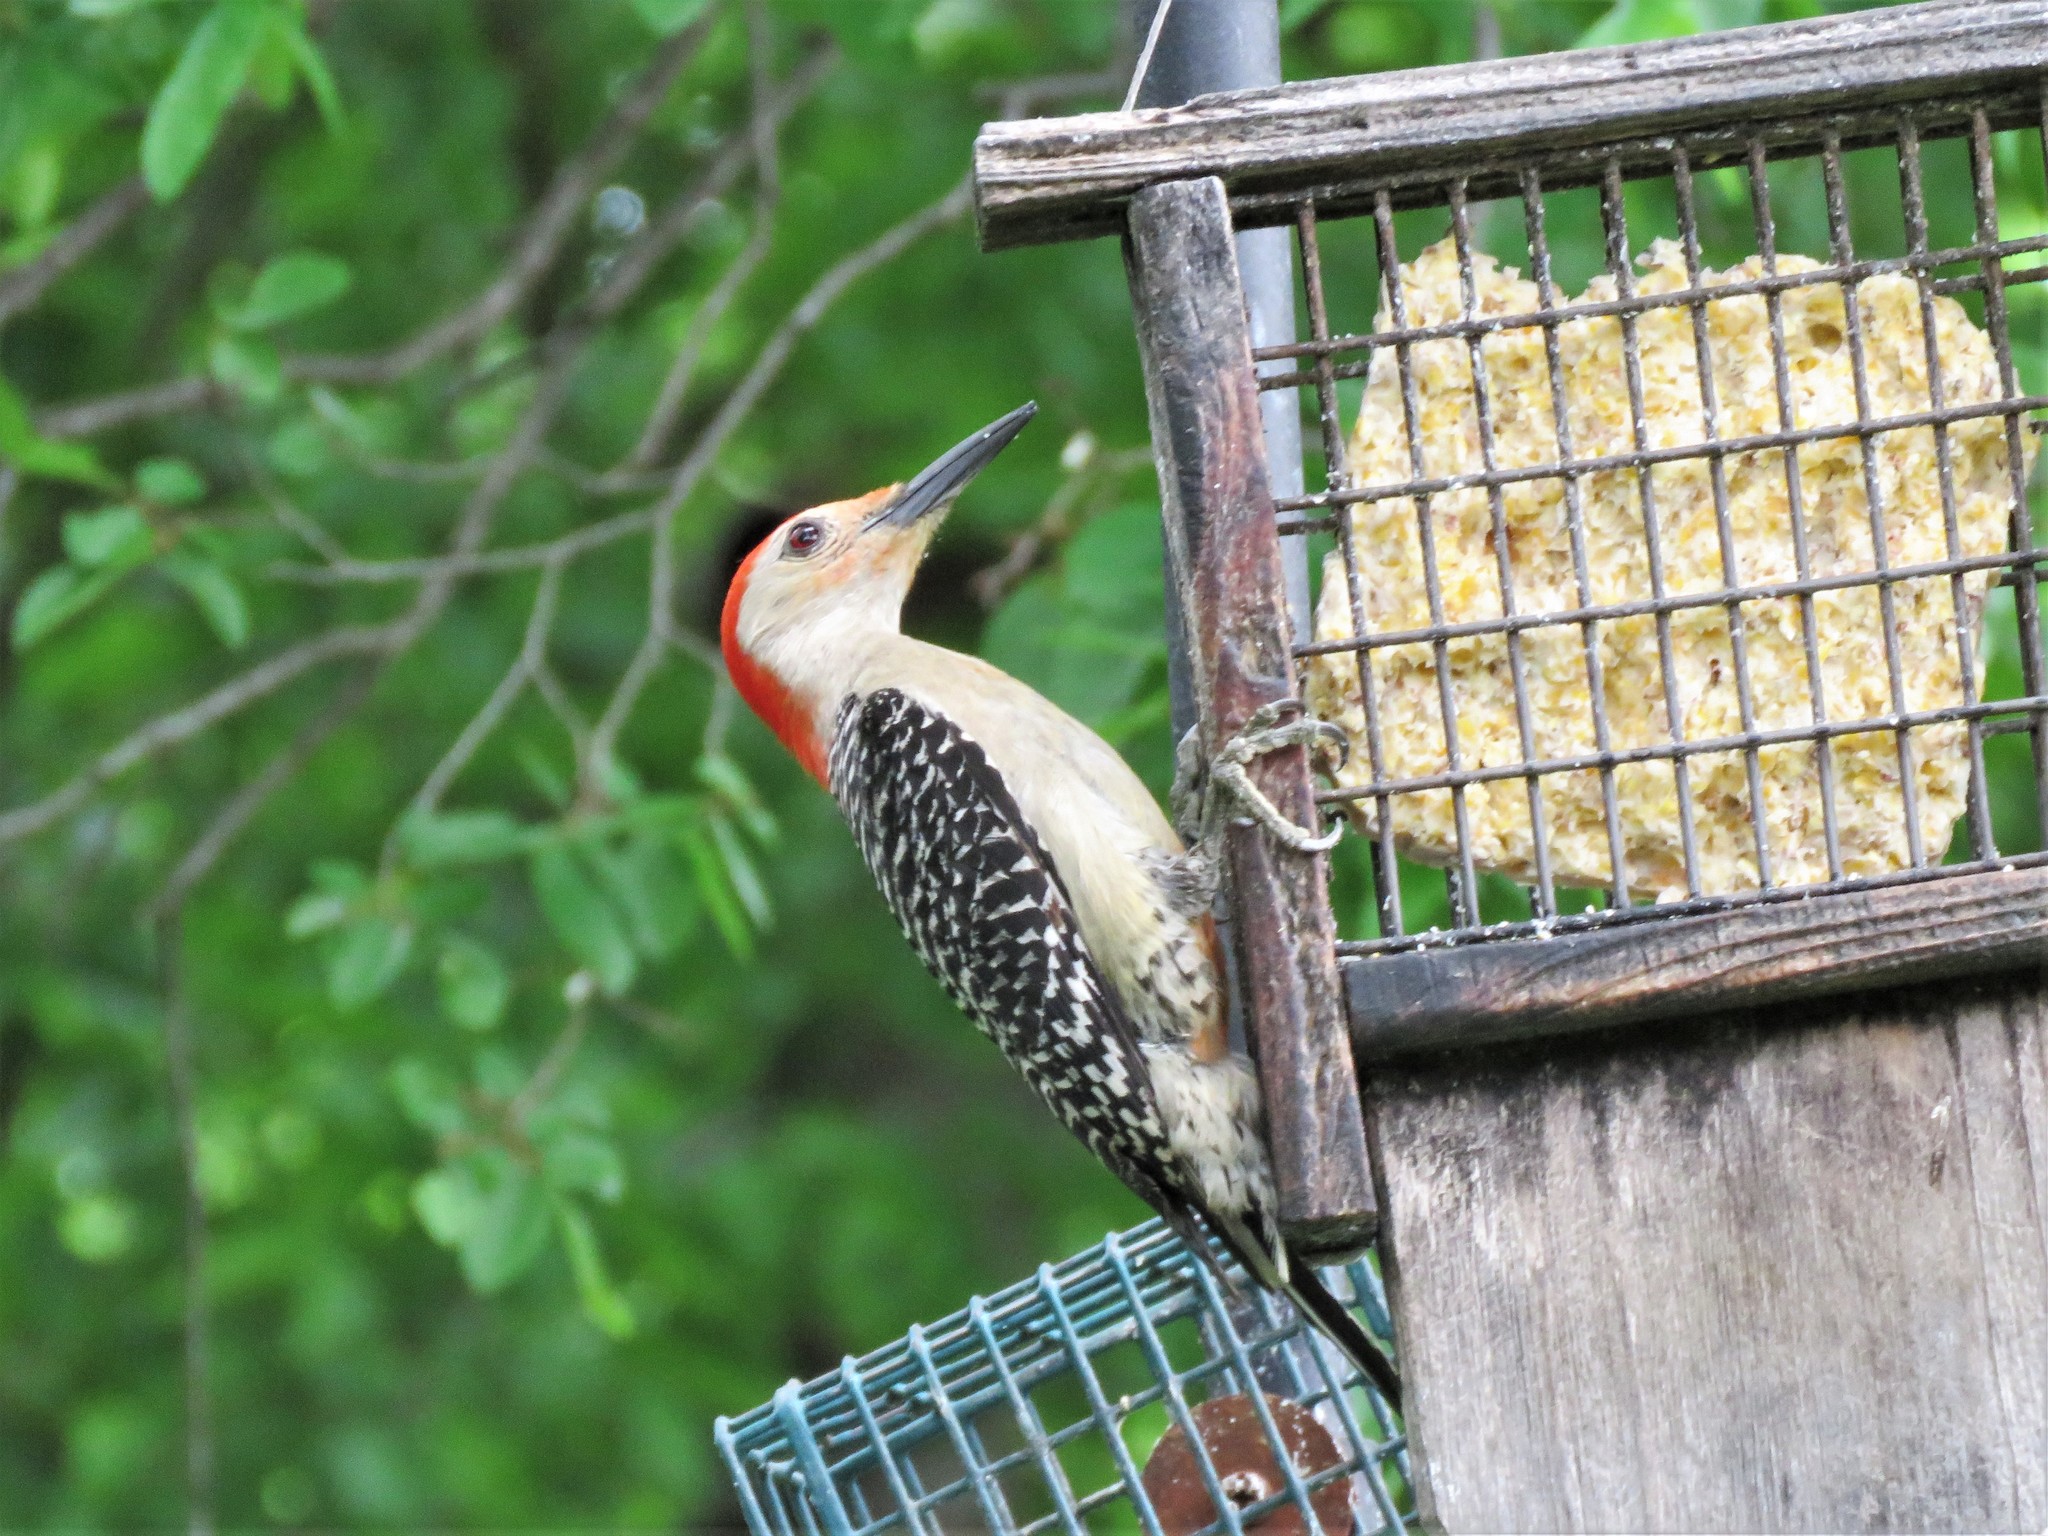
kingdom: Animalia
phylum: Chordata
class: Aves
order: Piciformes
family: Picidae
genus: Melanerpes
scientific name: Melanerpes carolinus
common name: Red-bellied woodpecker
